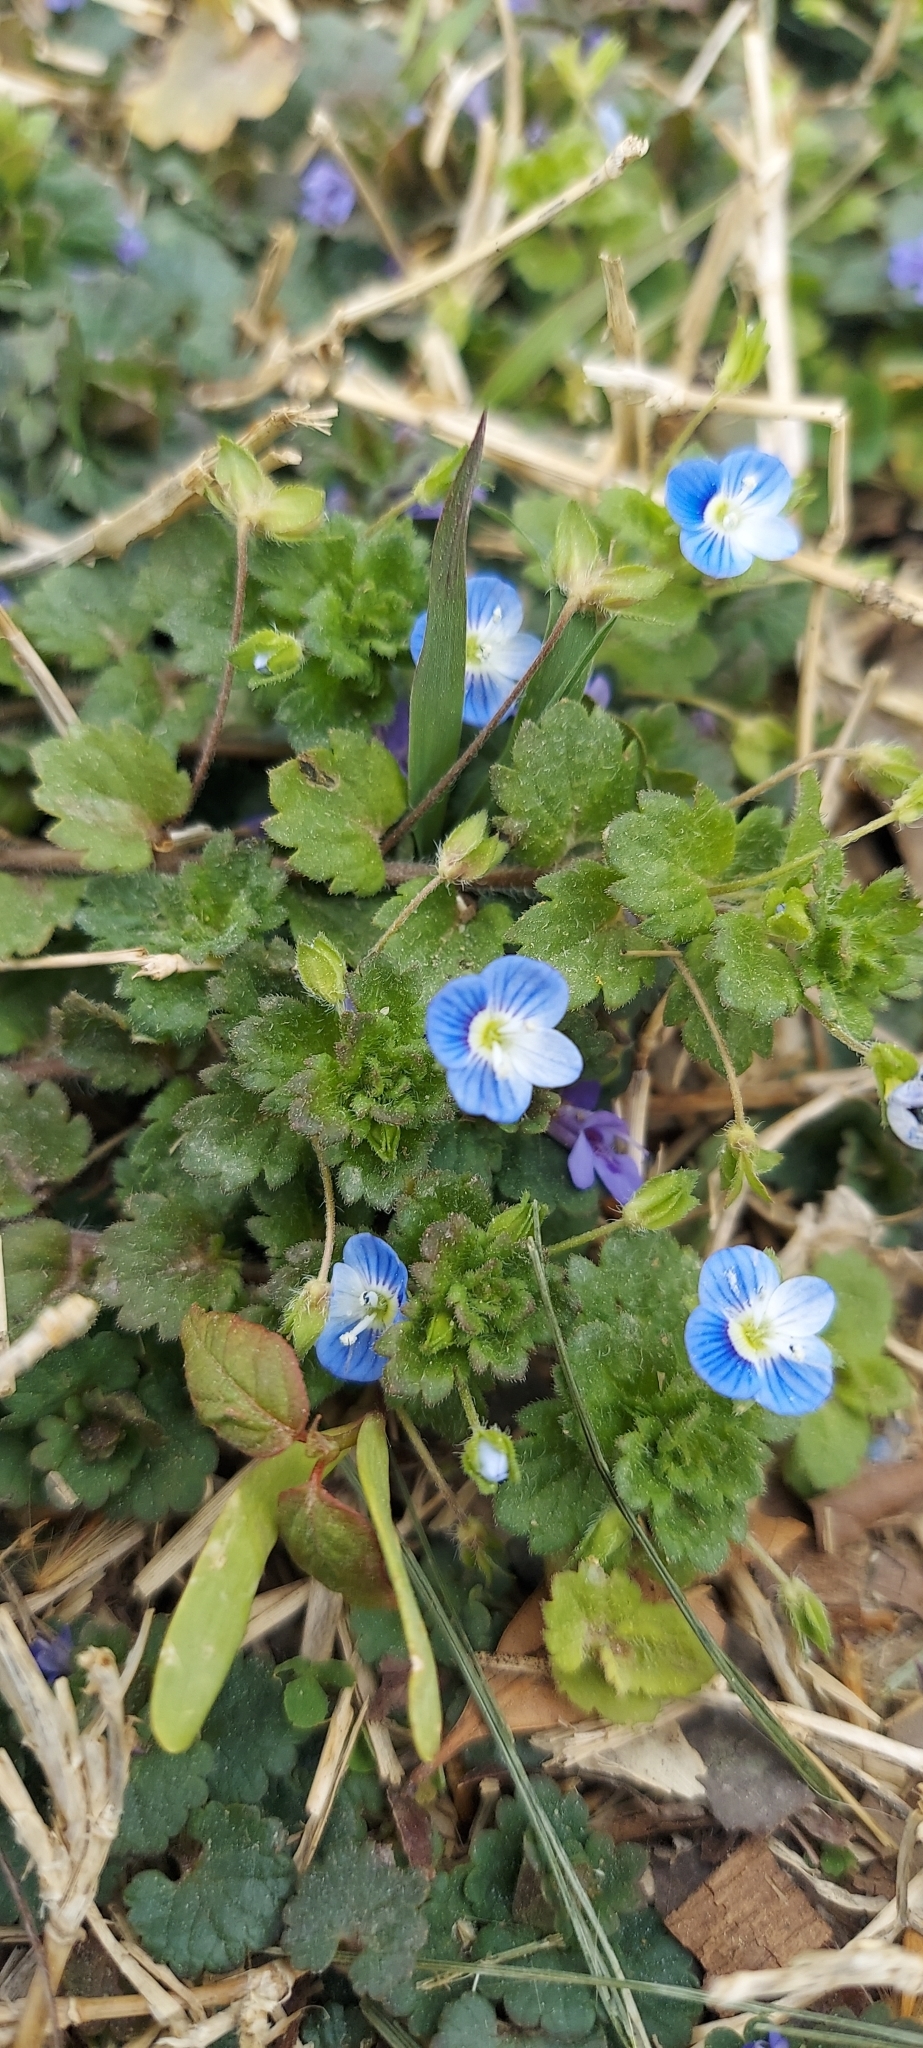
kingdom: Plantae
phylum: Tracheophyta
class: Magnoliopsida
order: Lamiales
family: Plantaginaceae
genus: Veronica
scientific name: Veronica persica
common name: Common field-speedwell
